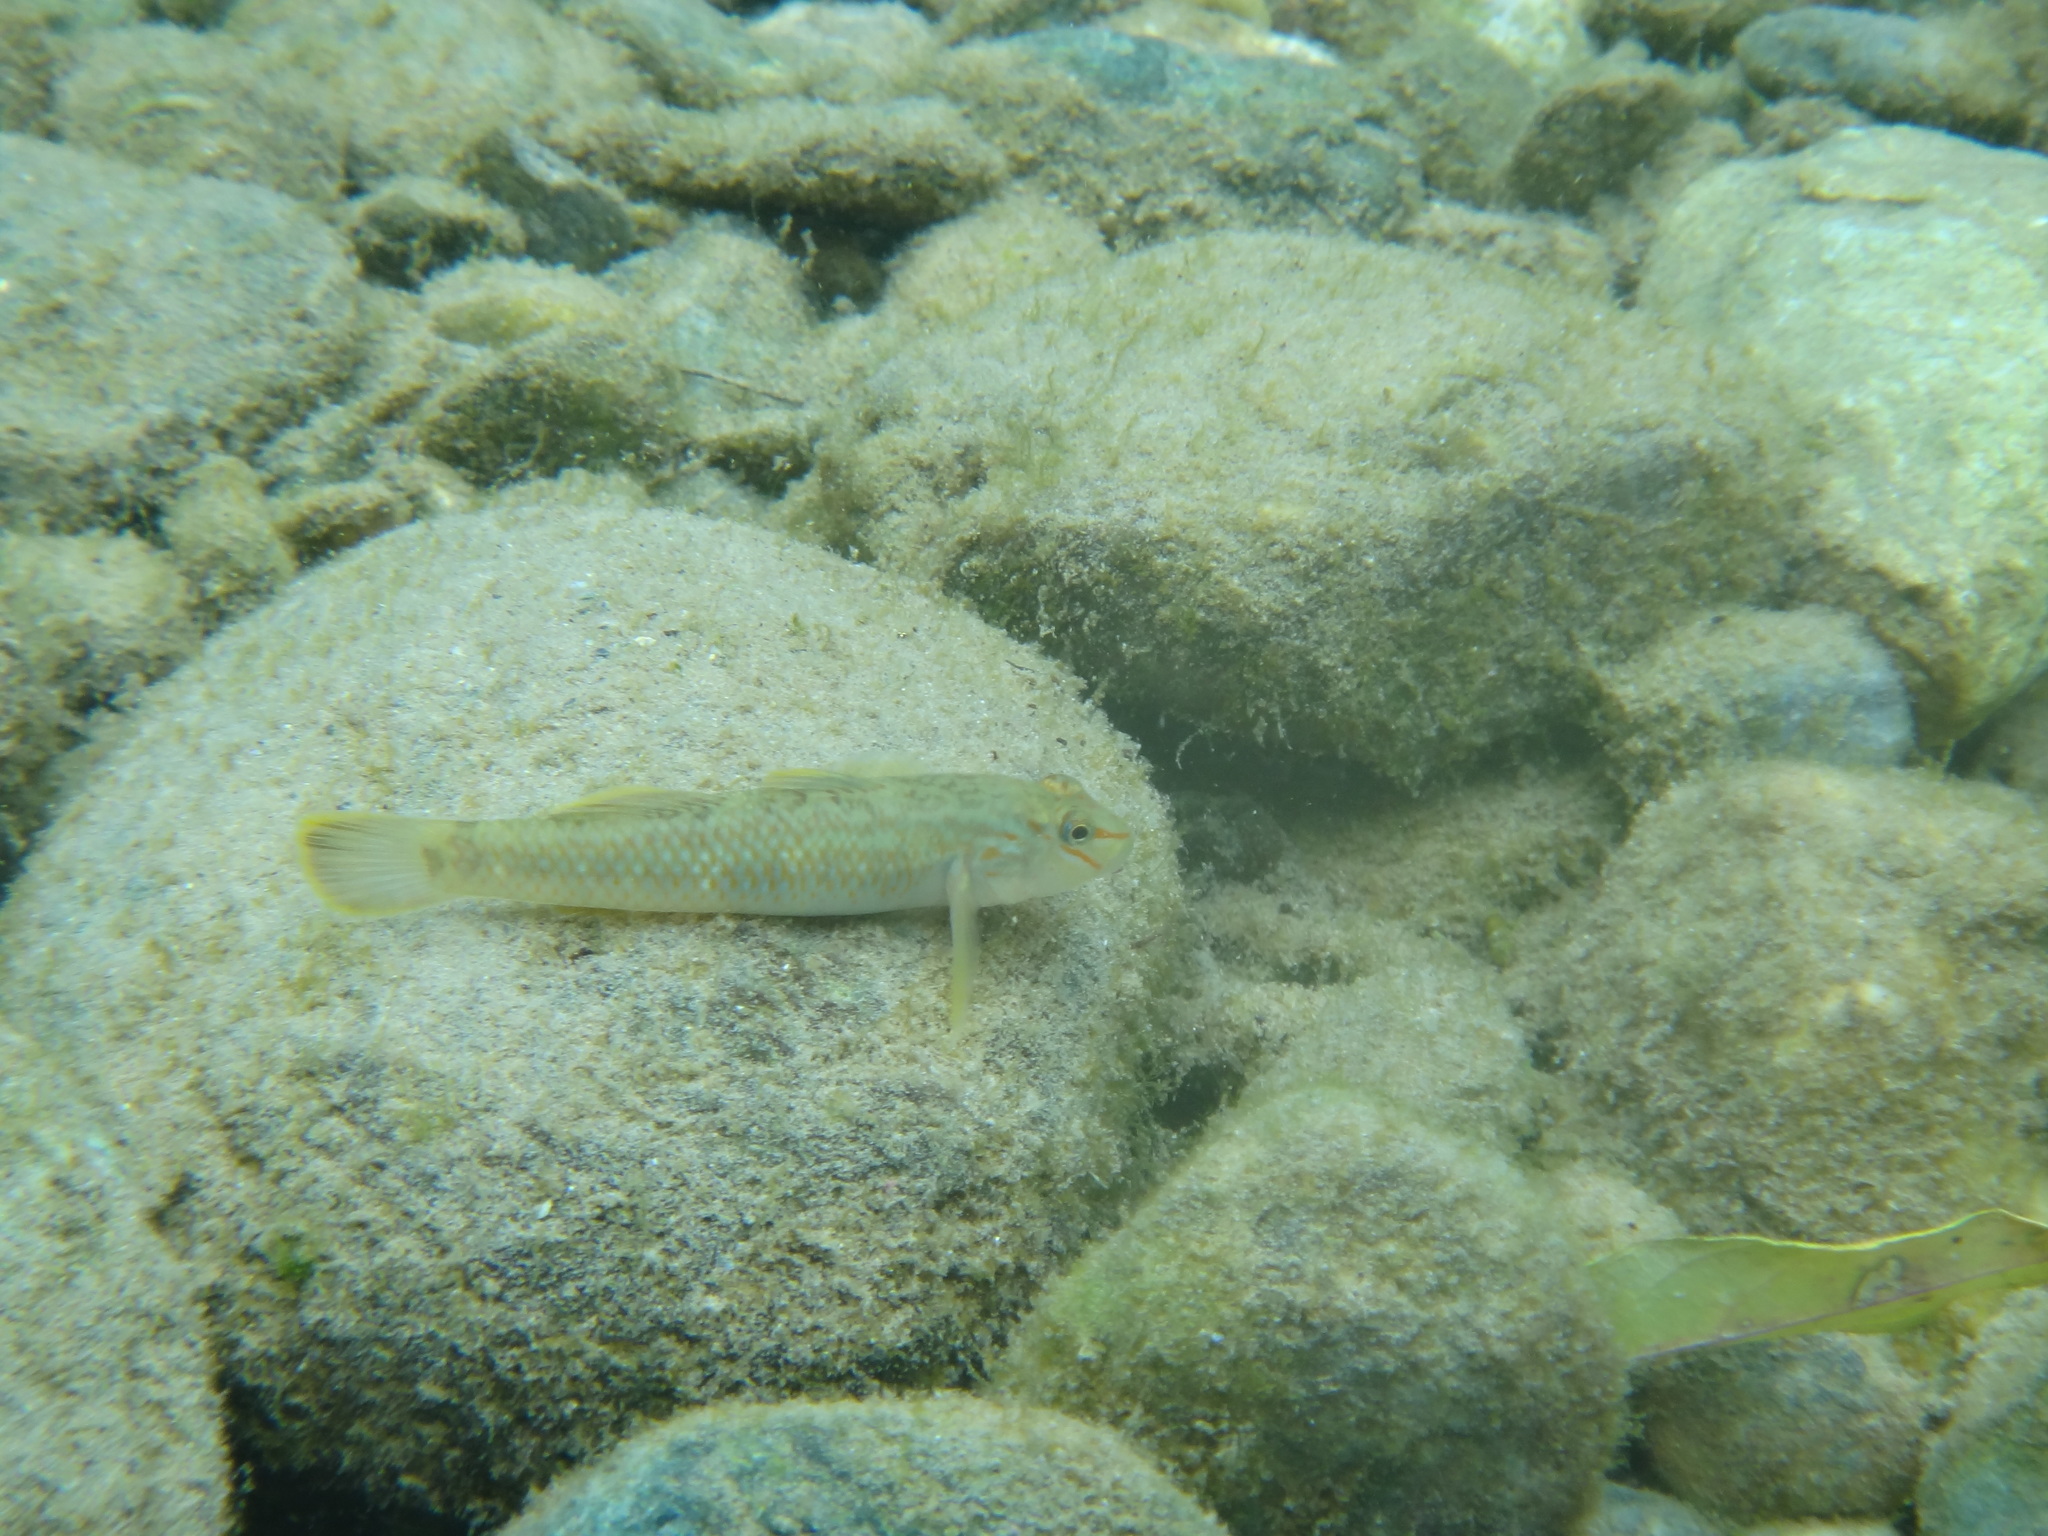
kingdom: Animalia
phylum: Chordata
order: Perciformes
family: Gobiidae
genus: Rhinogobius
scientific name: Rhinogobius candidianus
